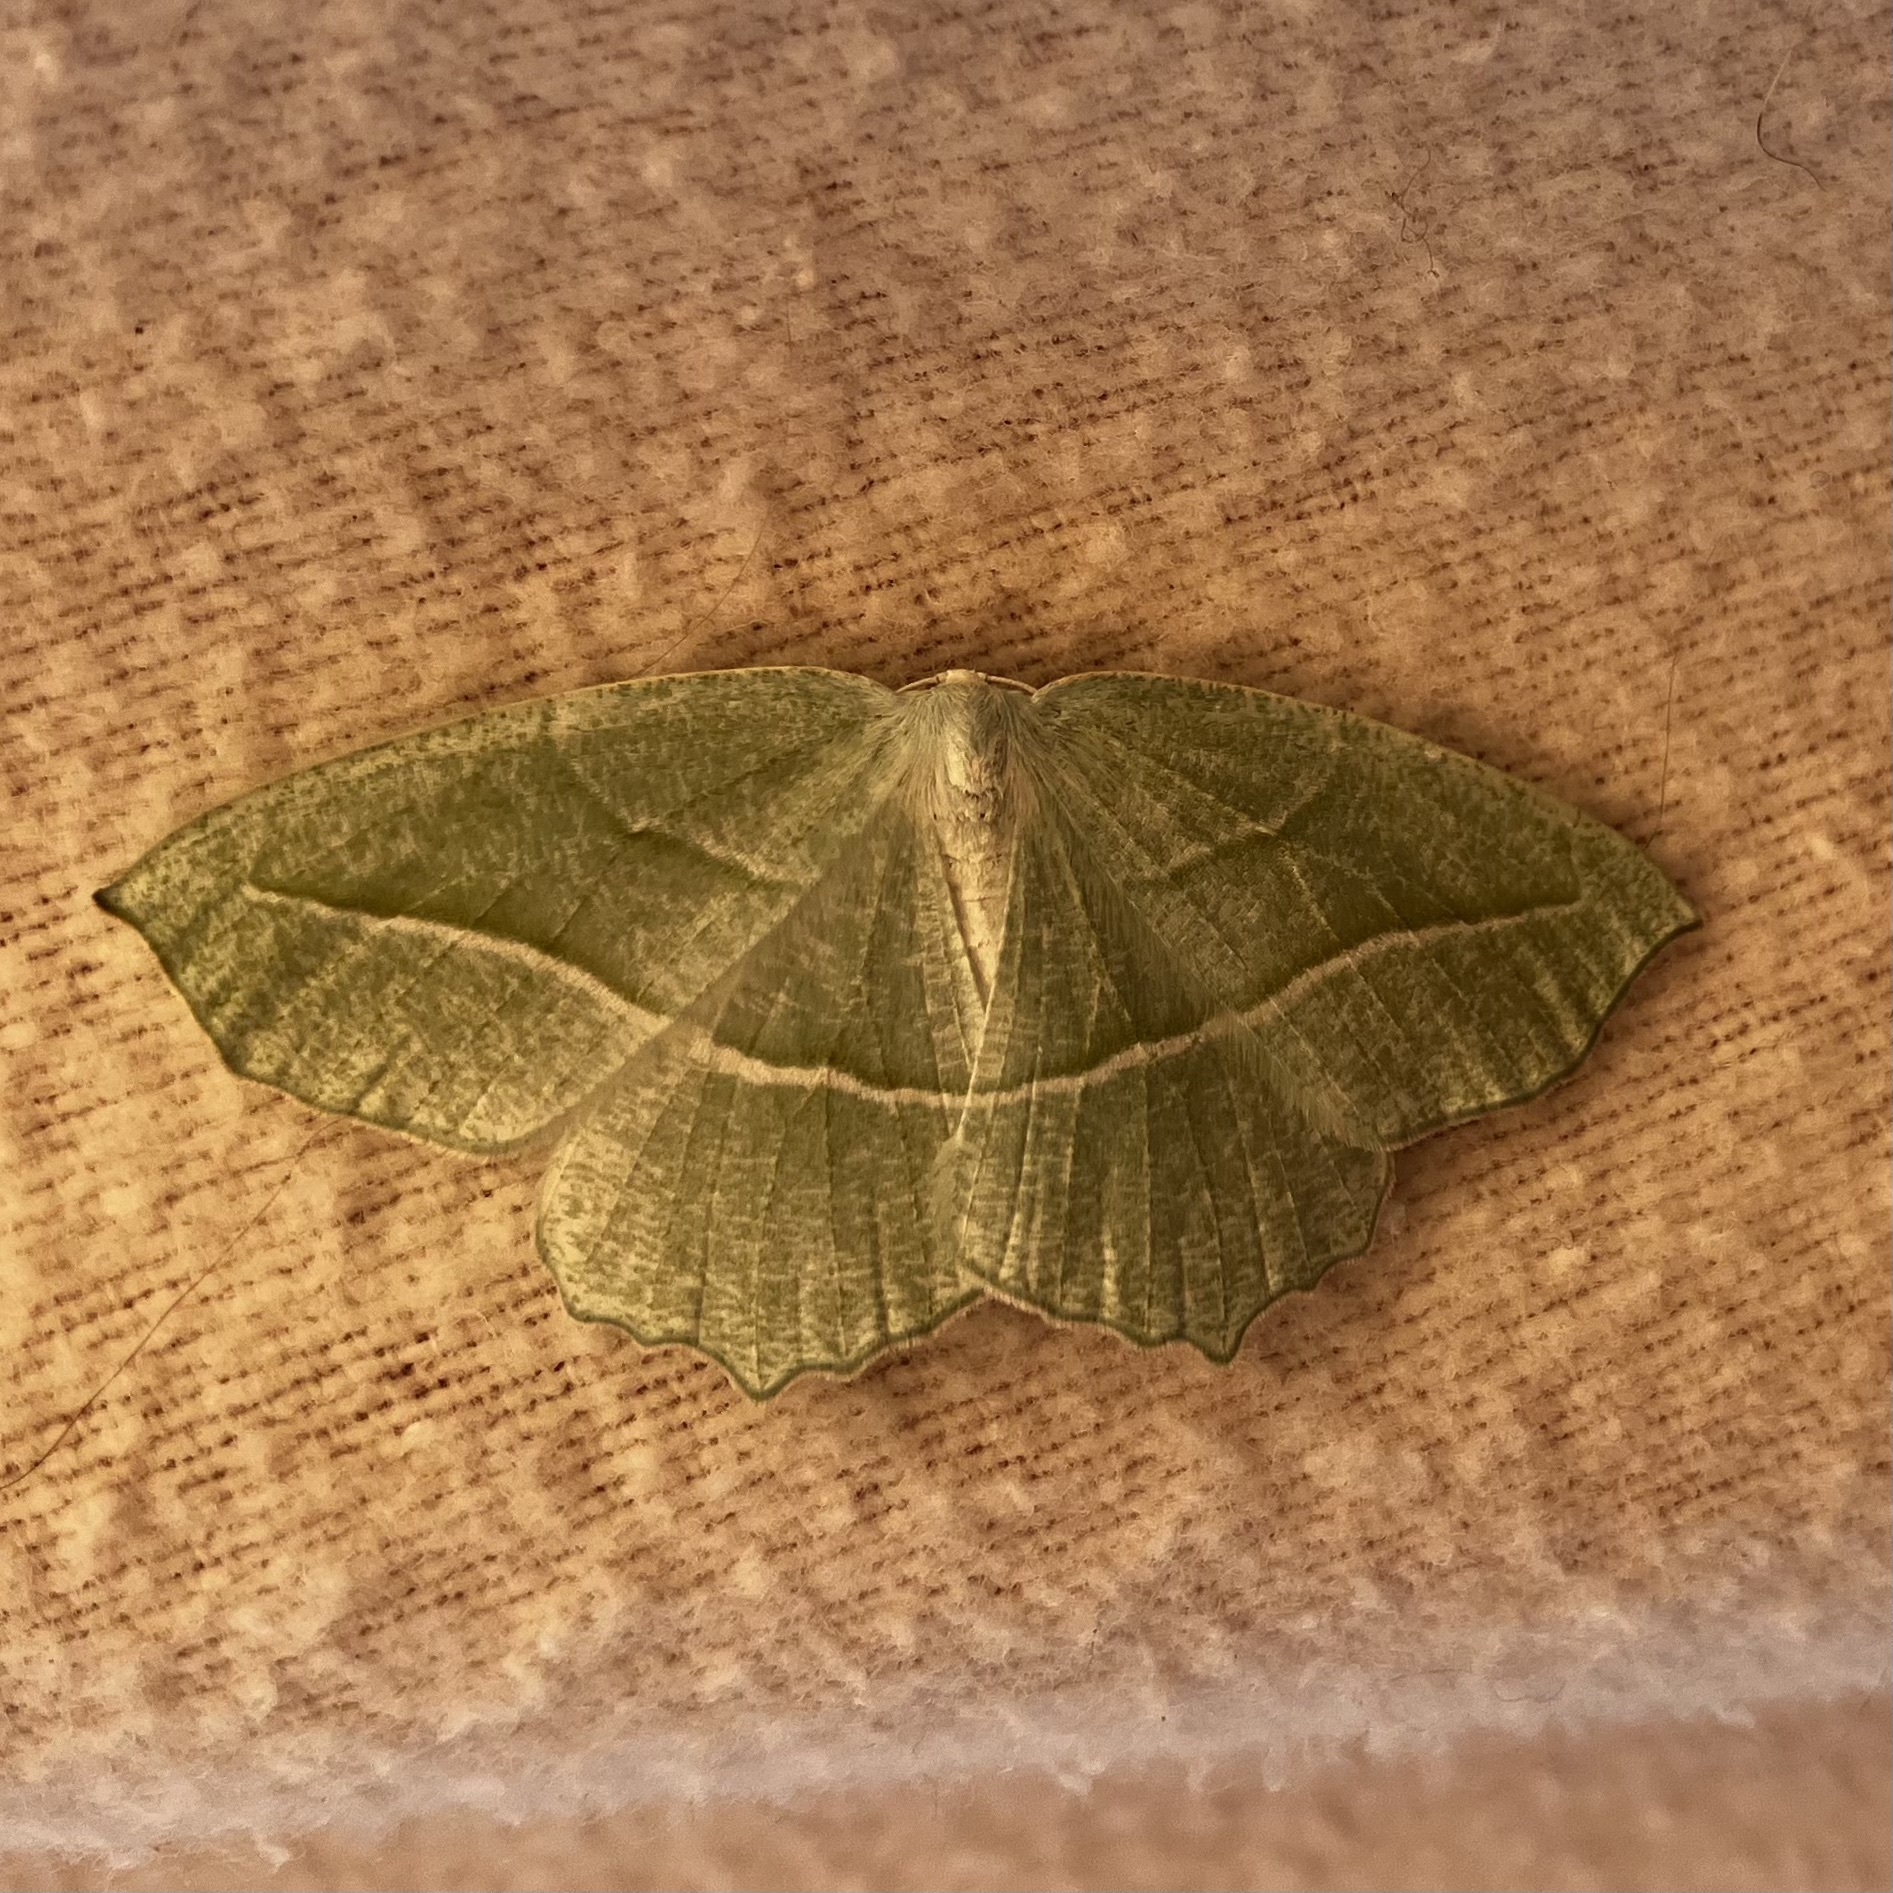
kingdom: Animalia
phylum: Arthropoda
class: Insecta
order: Lepidoptera
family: Geometridae
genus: Nemoria
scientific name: Nemoria darwiniata
